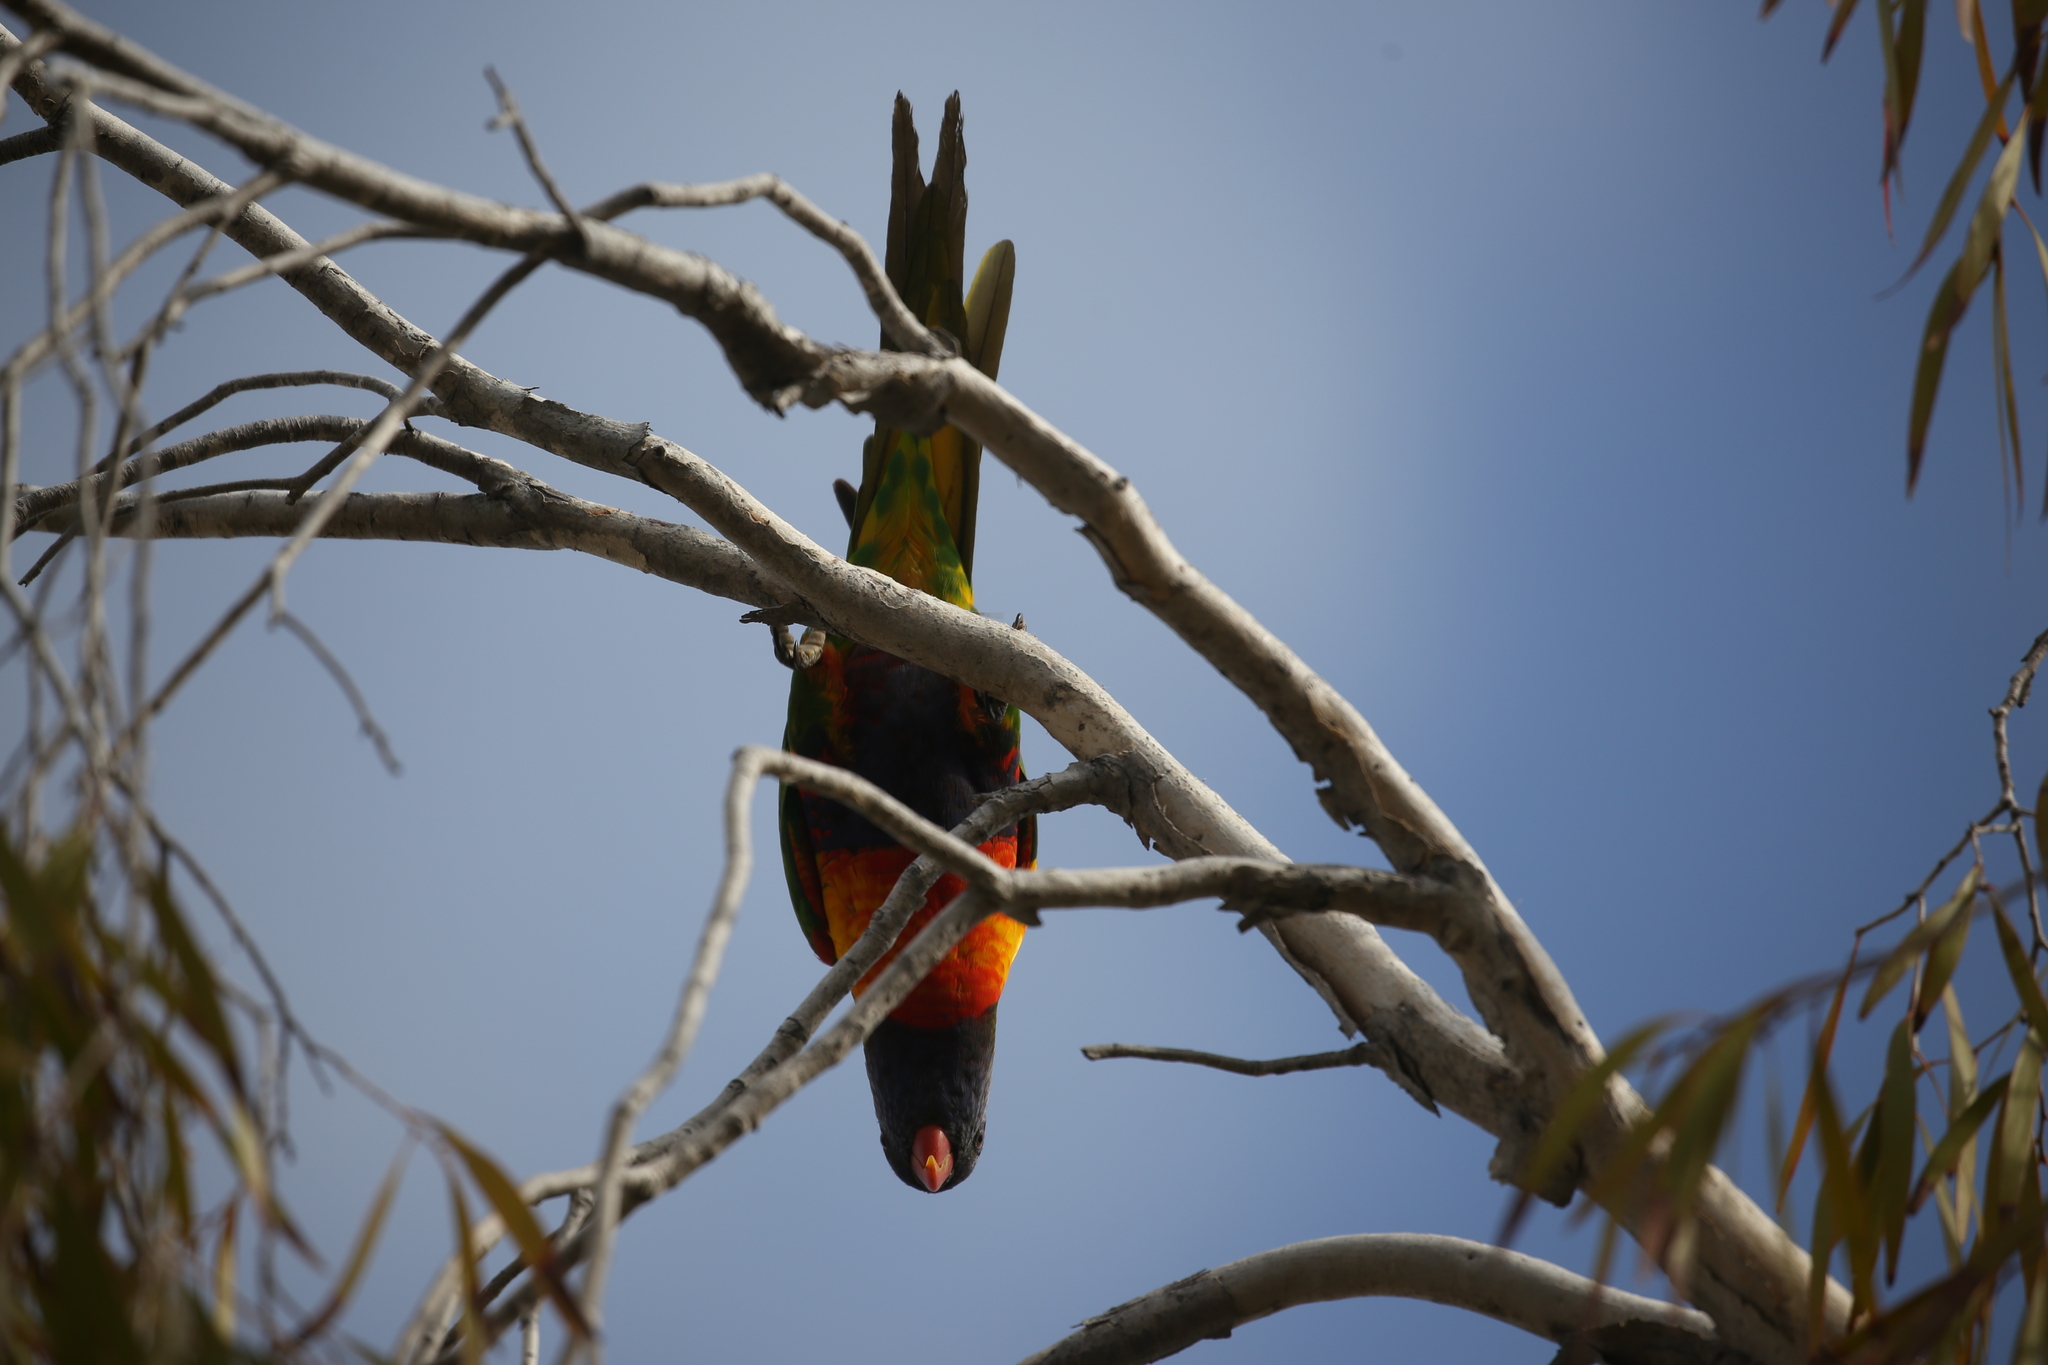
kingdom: Animalia
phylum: Chordata
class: Aves
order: Psittaciformes
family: Psittacidae
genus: Trichoglossus
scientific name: Trichoglossus haematodus
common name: Coconut lorikeet
